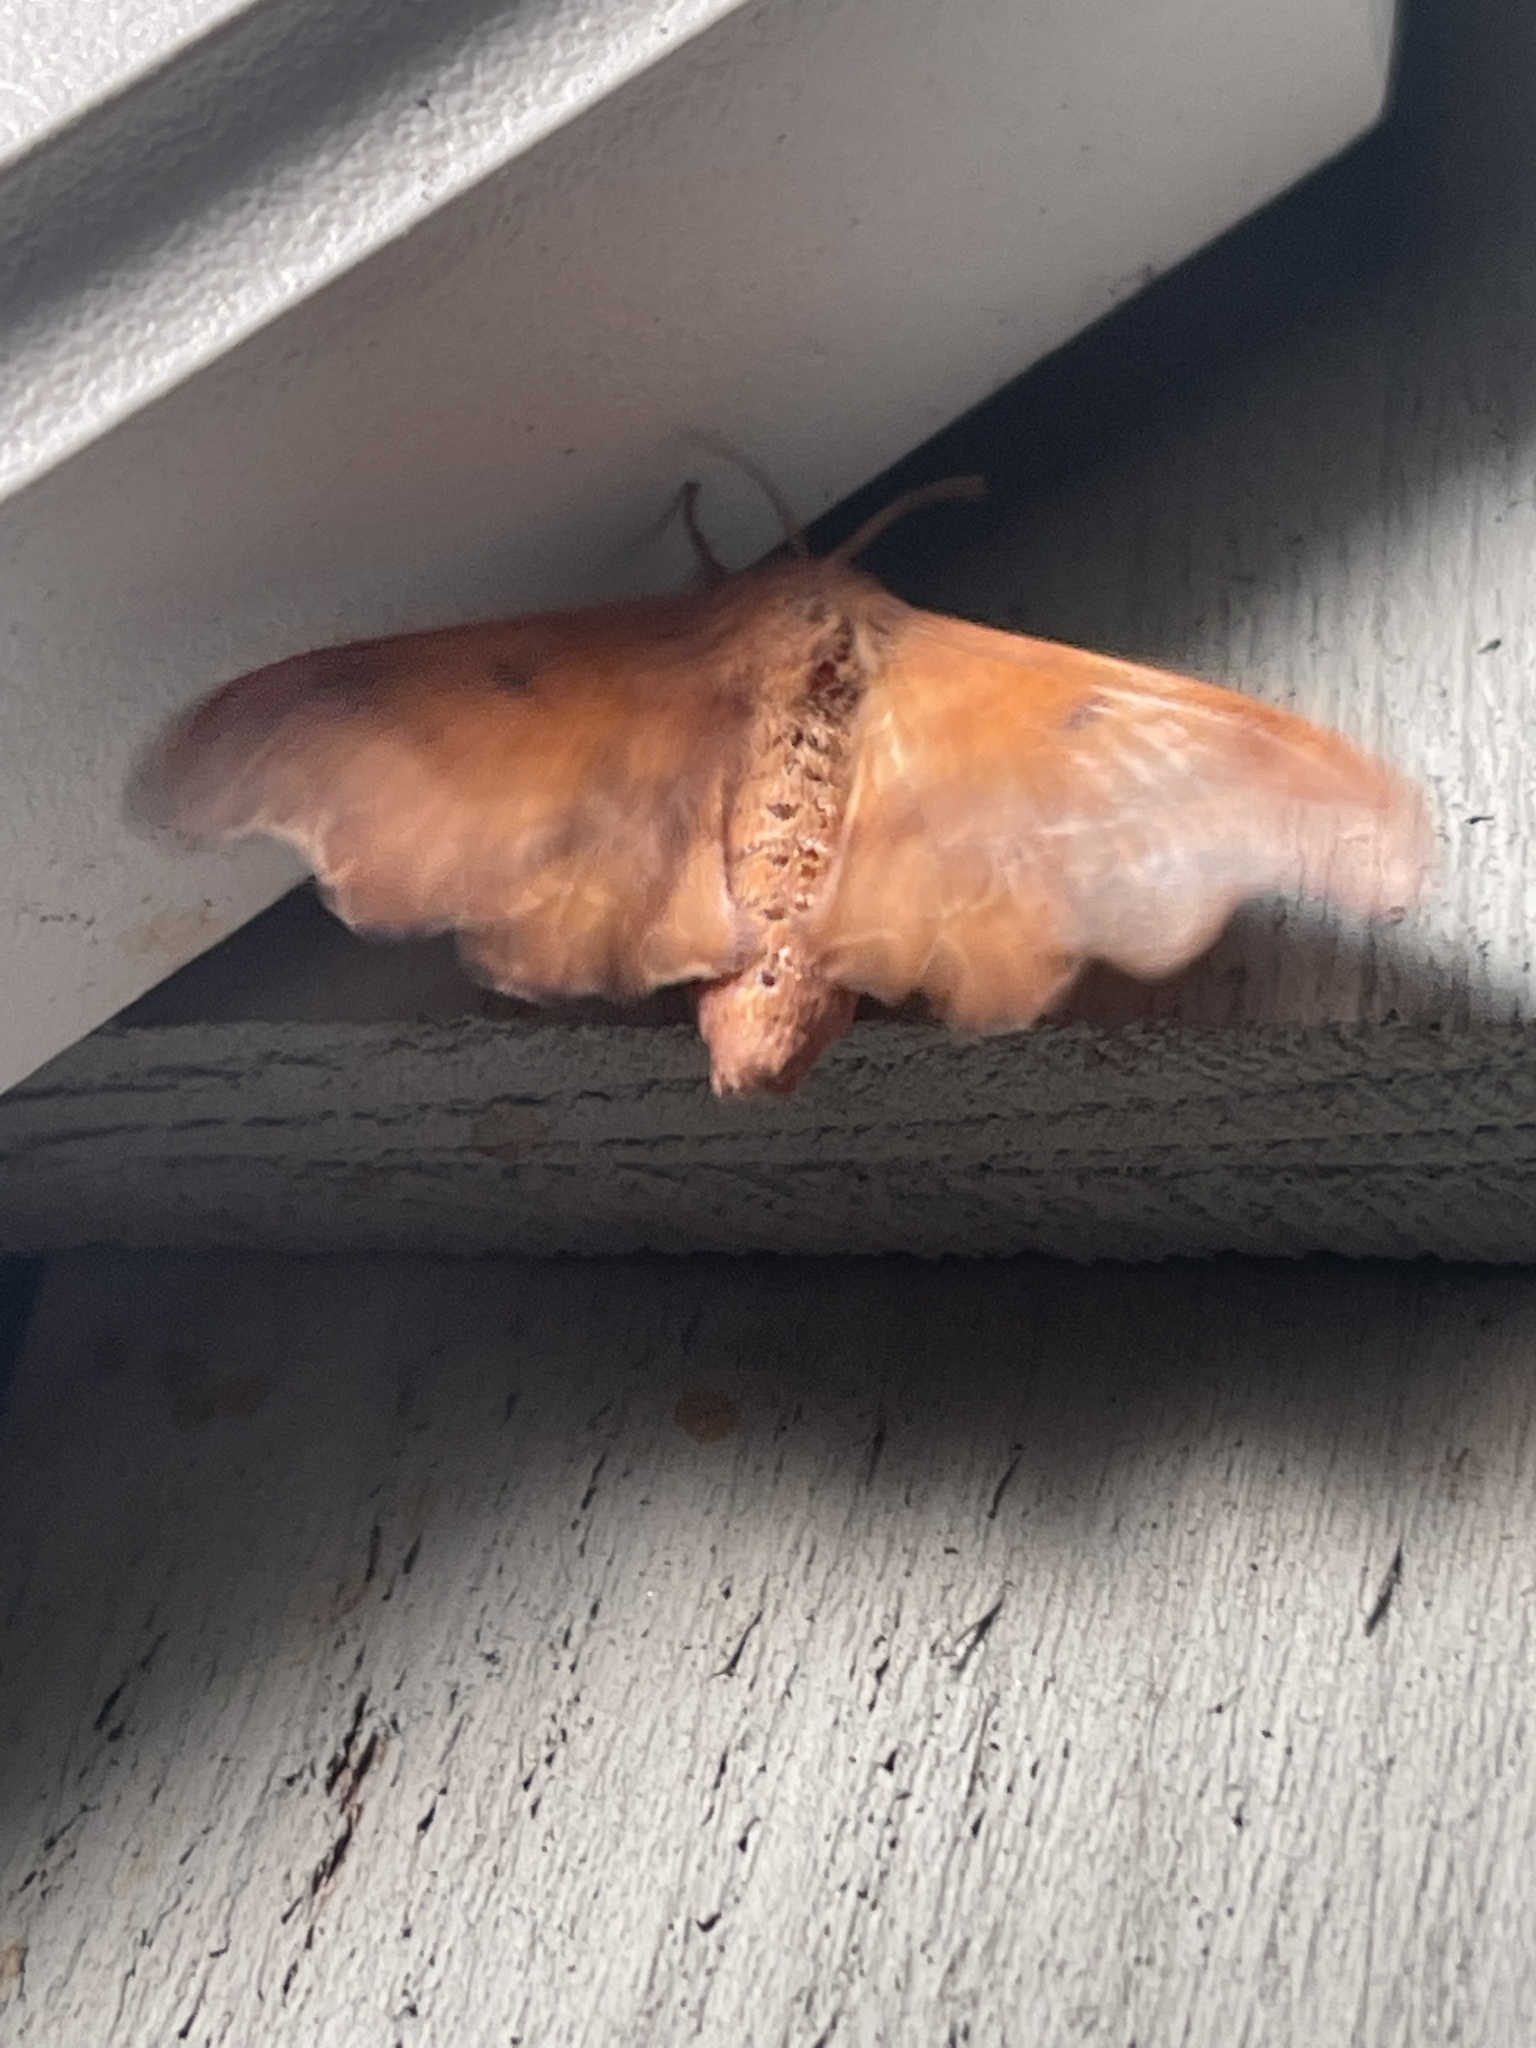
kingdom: Animalia
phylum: Arthropoda
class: Insecta
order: Lepidoptera
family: Mimallonidae
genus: Lacosoma
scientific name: Lacosoma chiridota
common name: Scalloped sack-bearer moth
